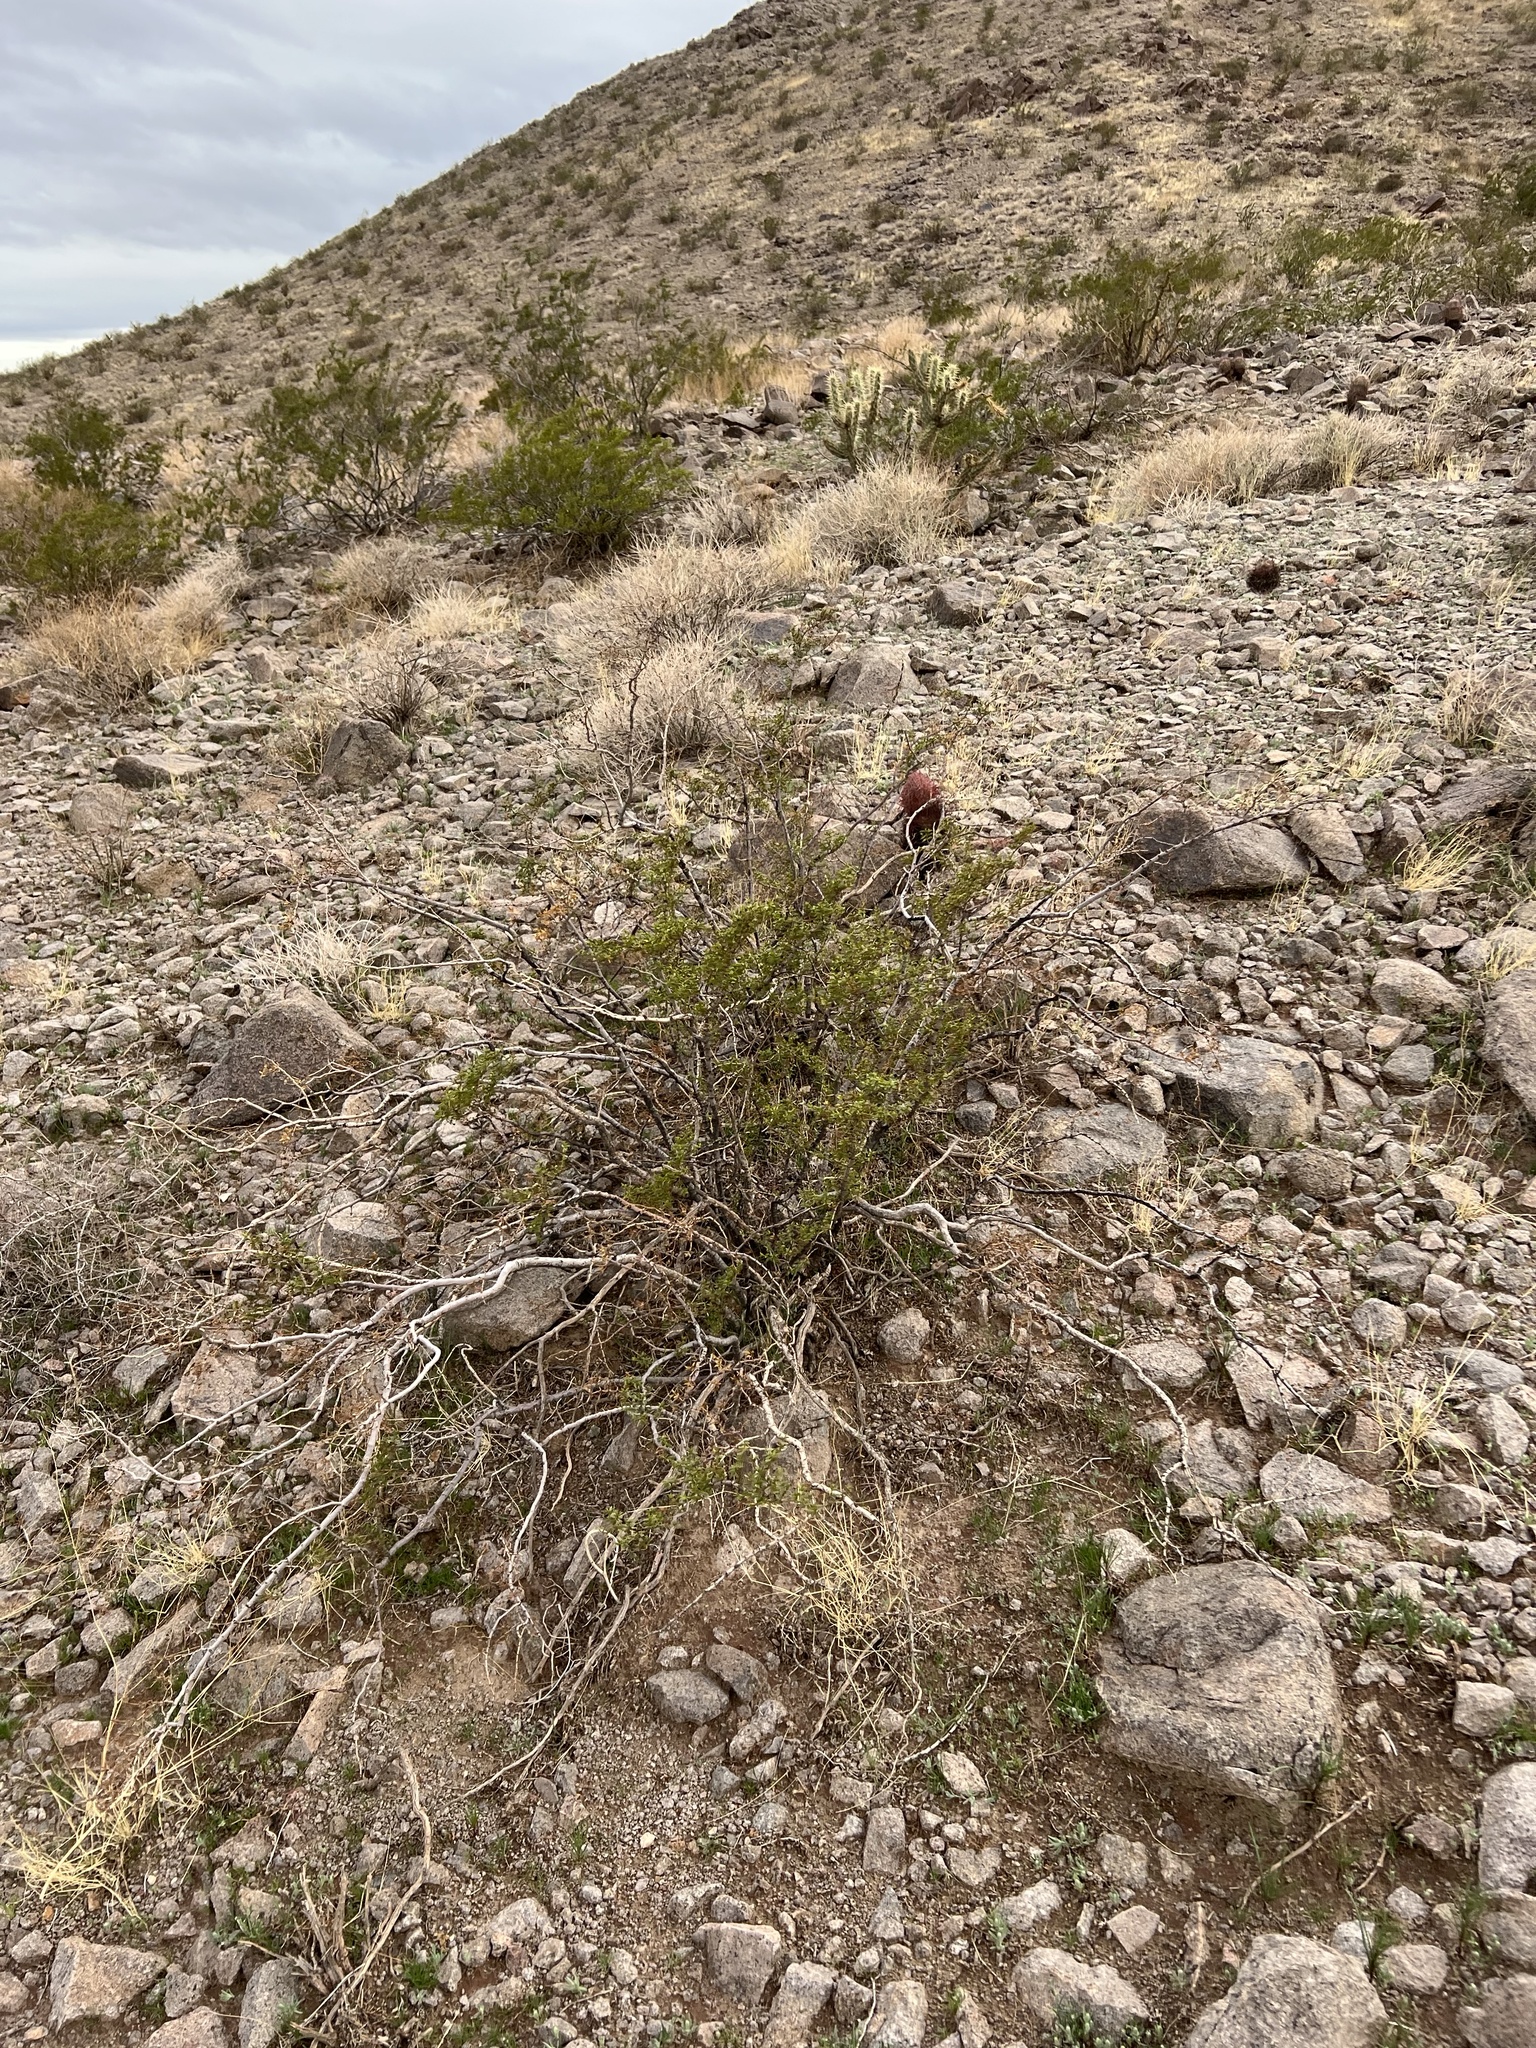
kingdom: Plantae
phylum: Tracheophyta
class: Magnoliopsida
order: Zygophyllales
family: Zygophyllaceae
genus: Larrea
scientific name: Larrea tridentata
